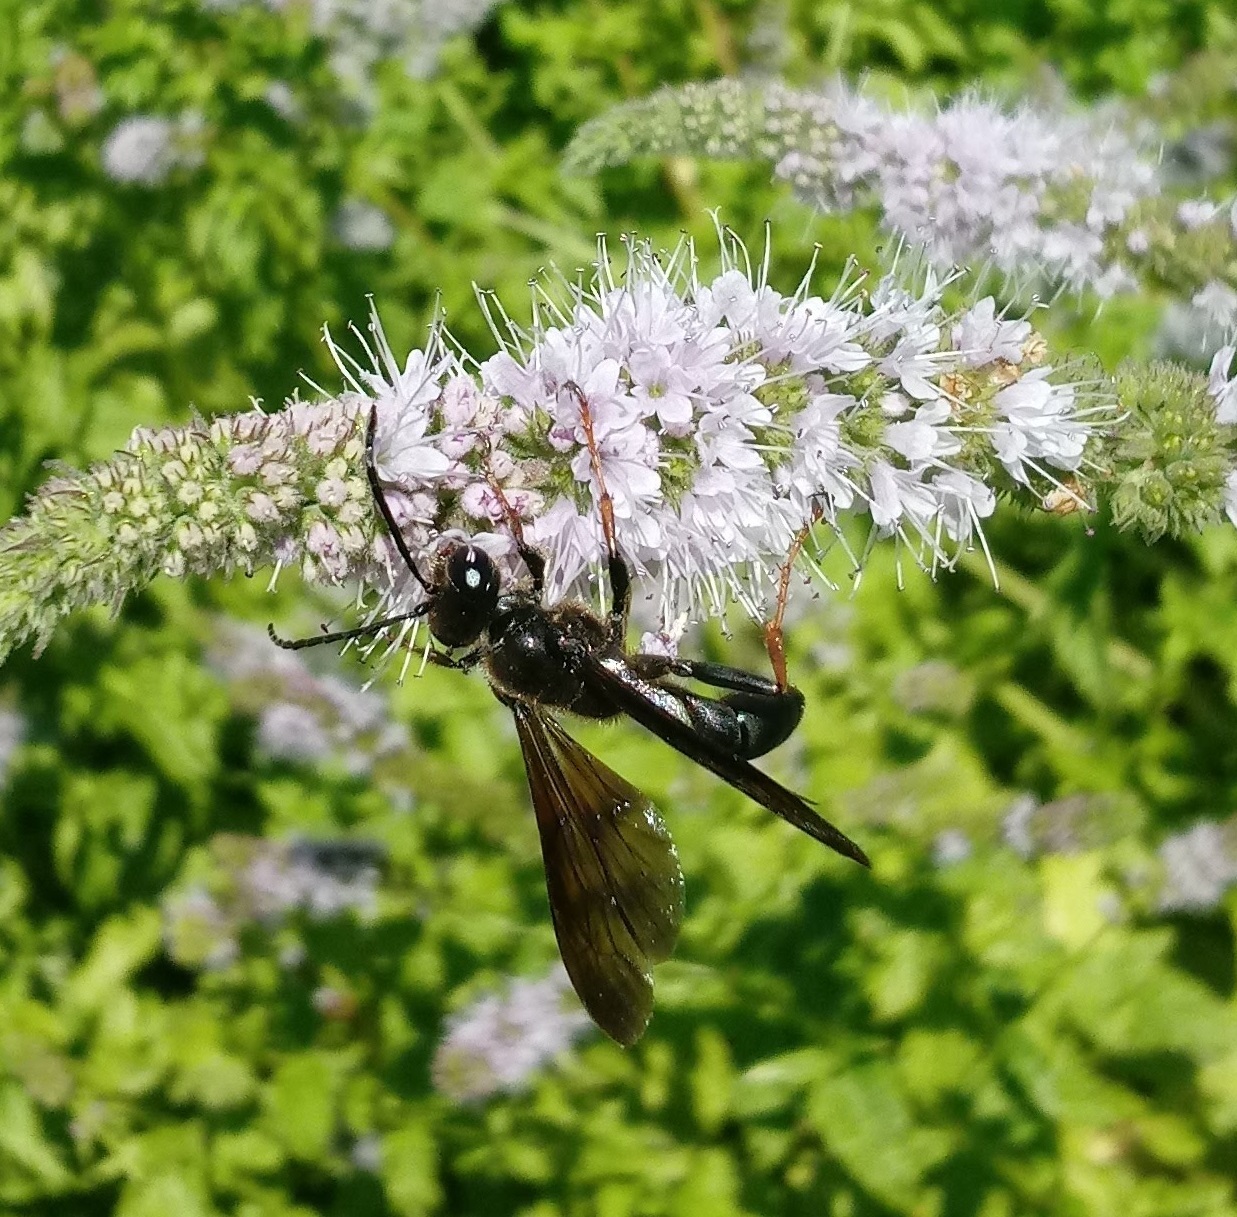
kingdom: Animalia
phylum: Arthropoda
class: Insecta
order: Hymenoptera
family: Sphecidae
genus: Isodontia
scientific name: Isodontia auripes
